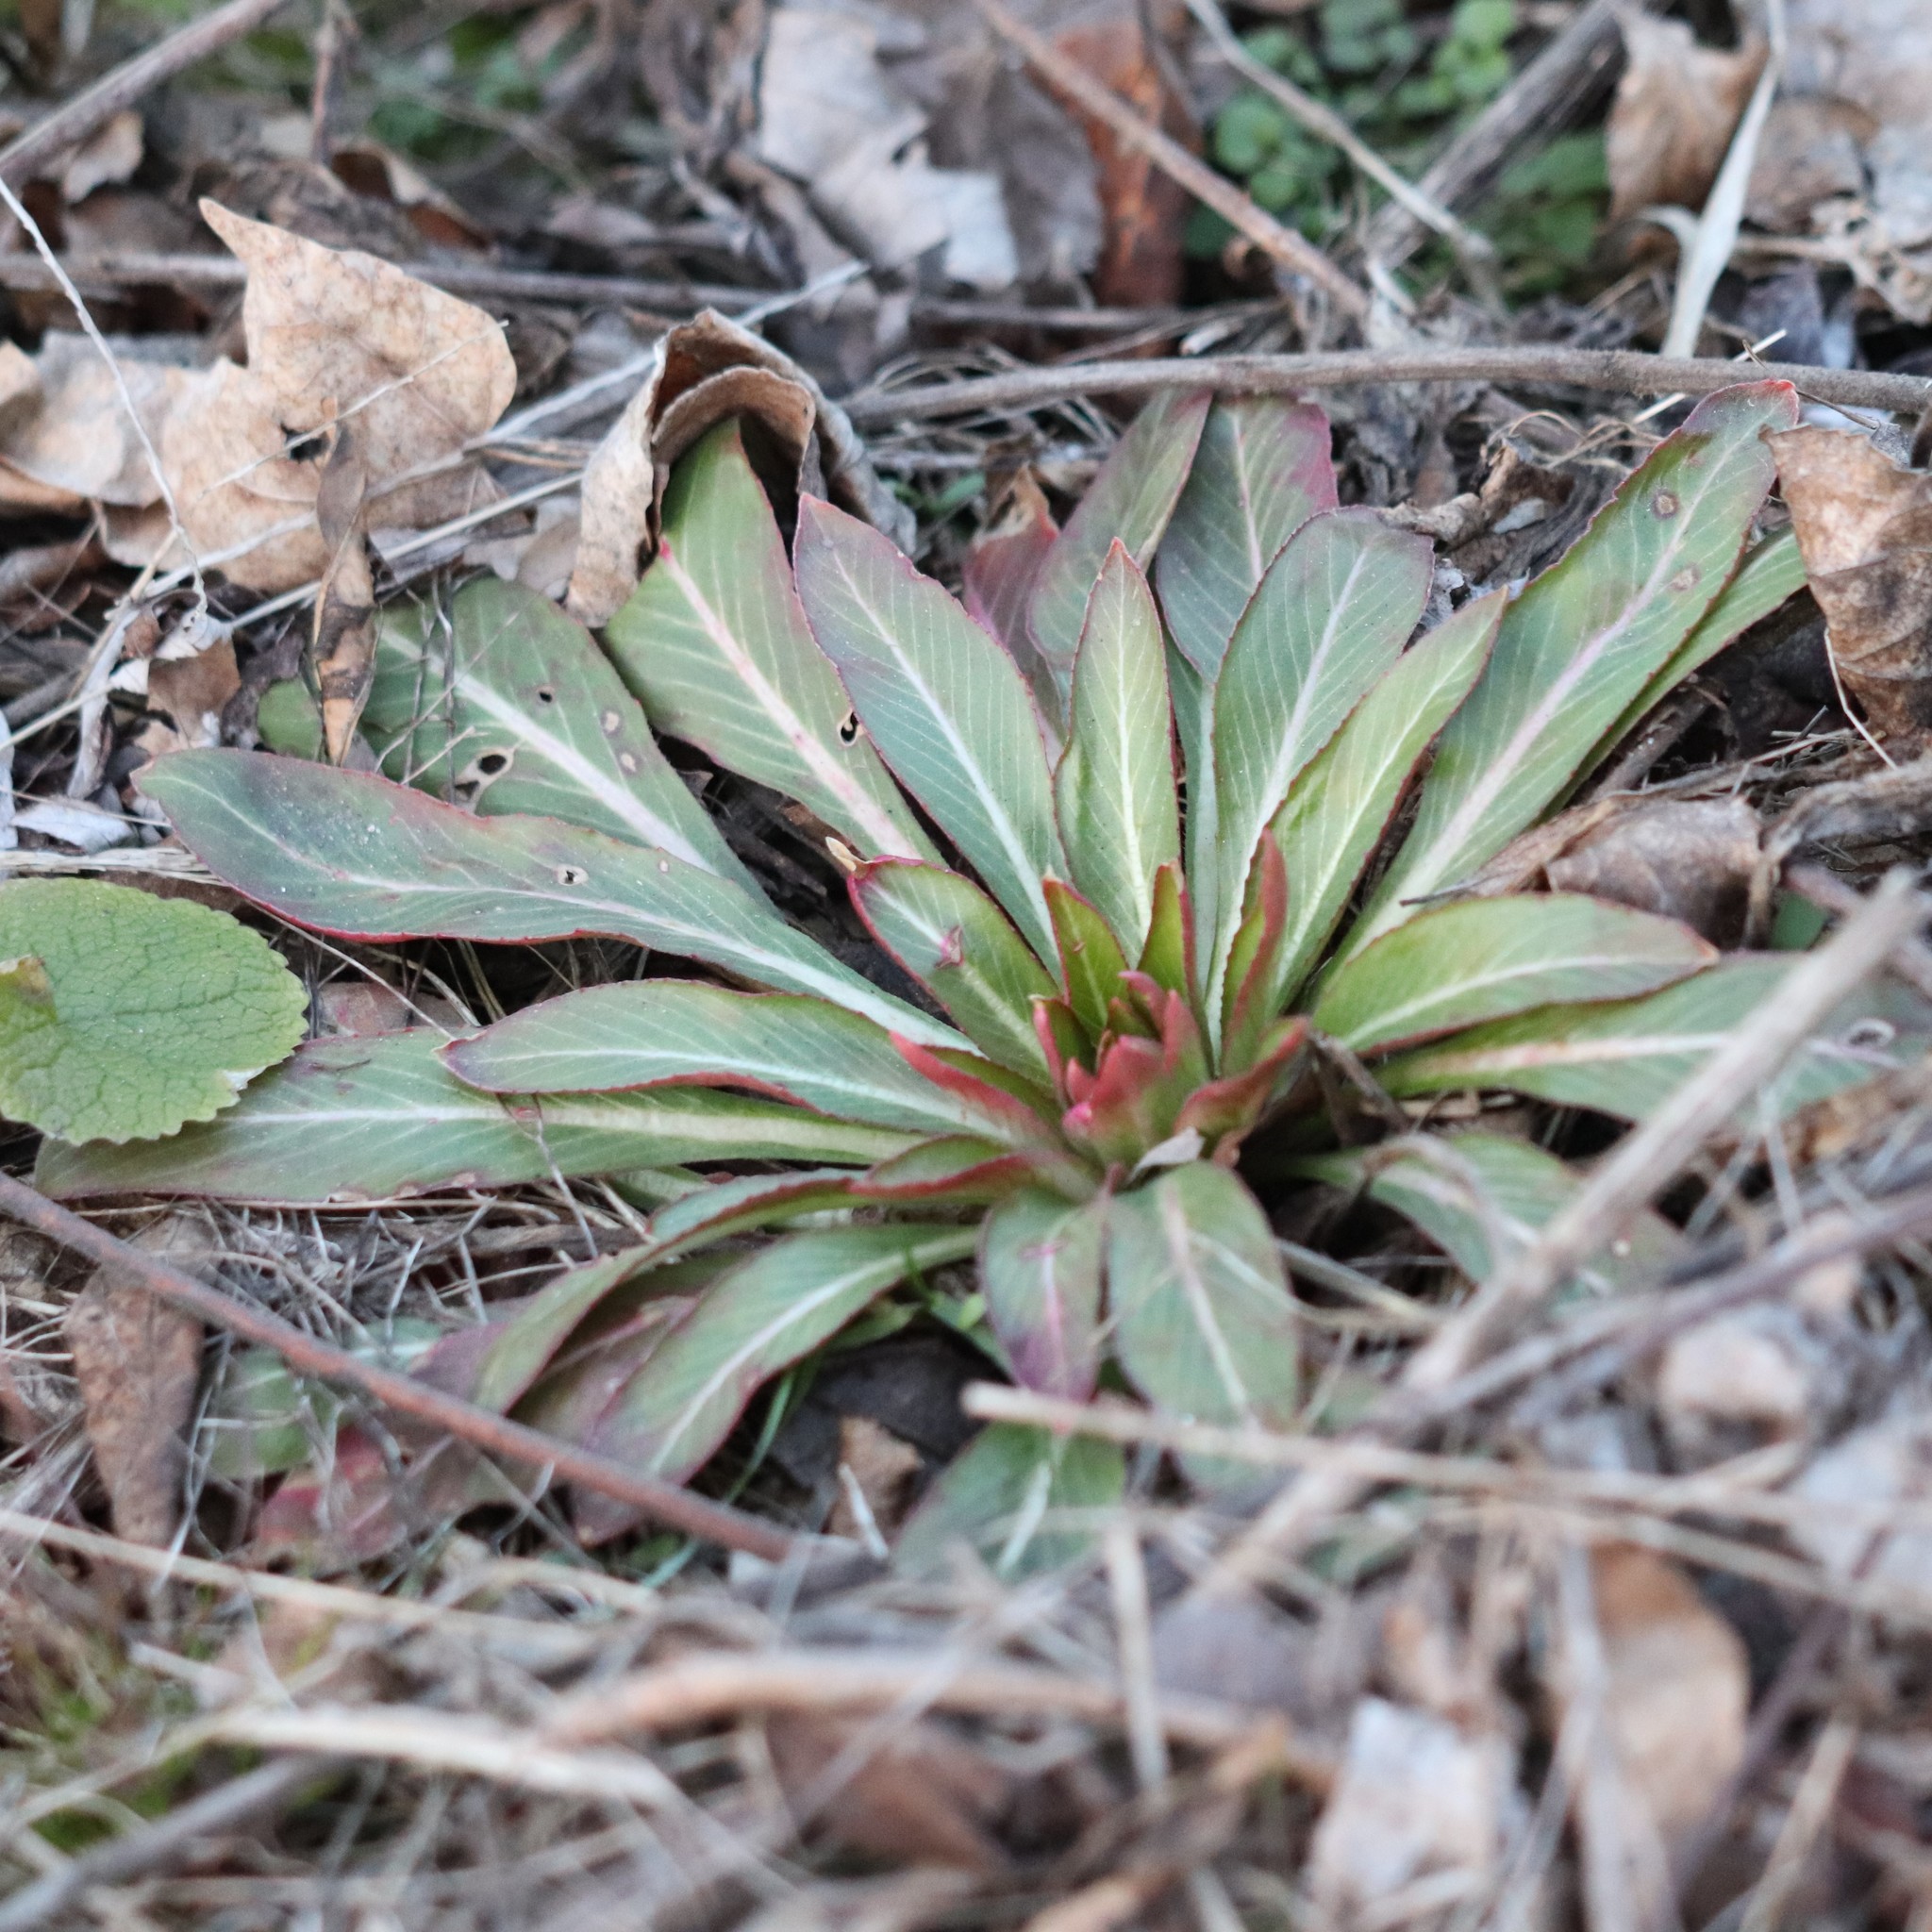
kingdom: Plantae
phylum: Tracheophyta
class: Magnoliopsida
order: Myrtales
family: Onagraceae
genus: Oenothera
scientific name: Oenothera
